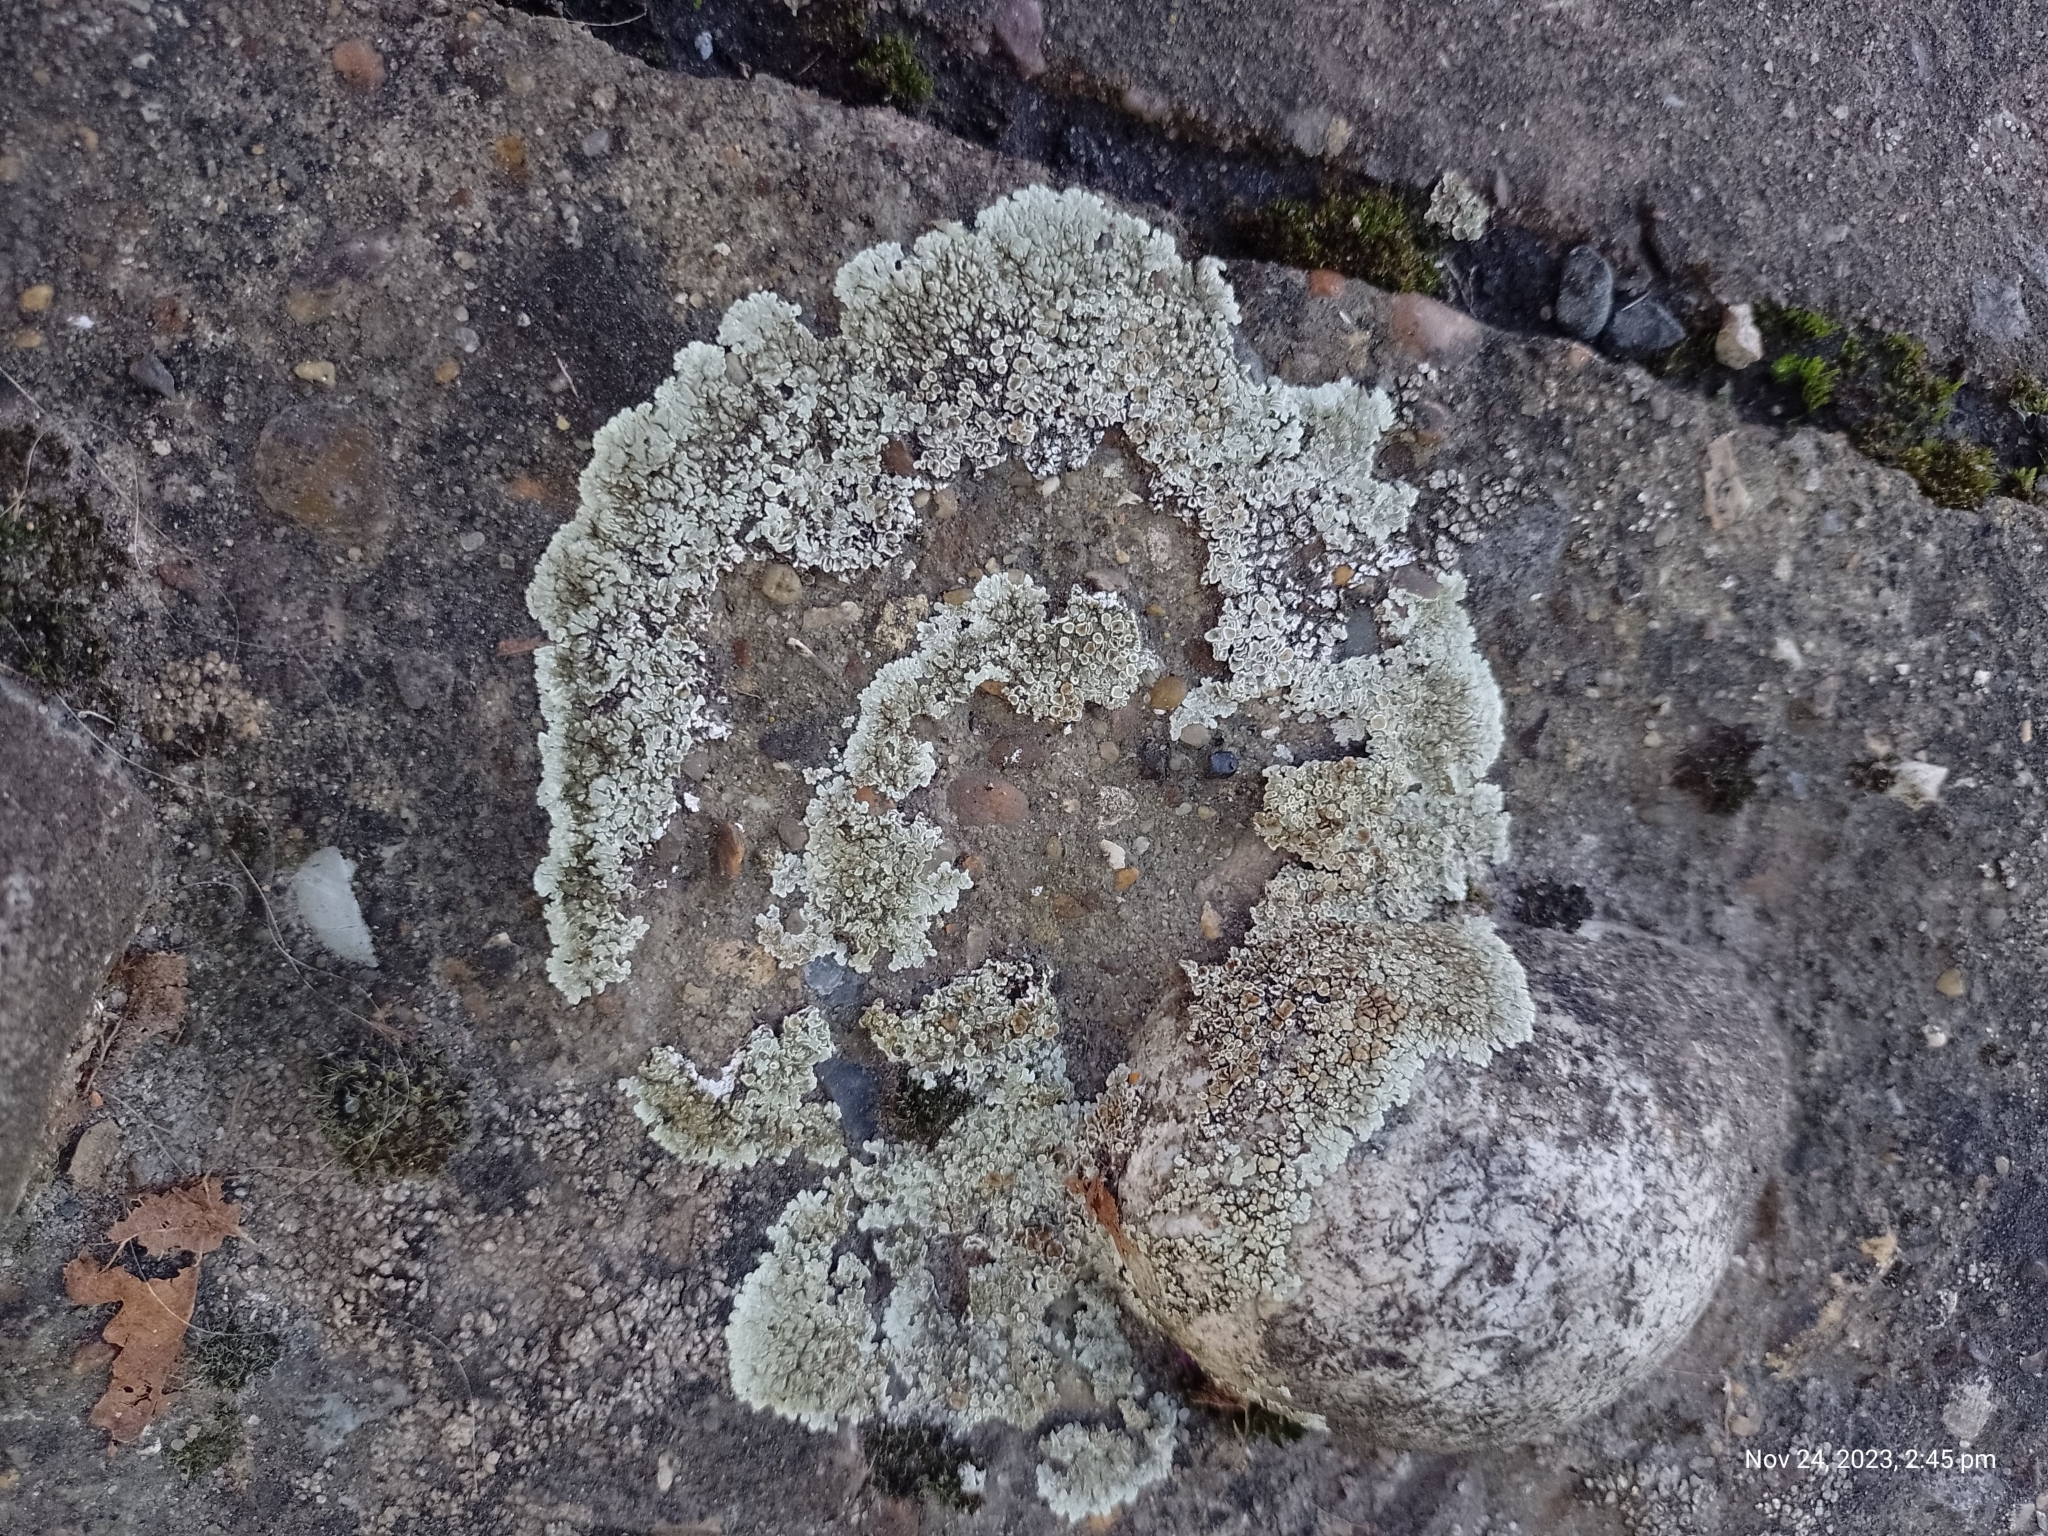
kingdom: Fungi
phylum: Ascomycota
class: Lecanoromycetes
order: Lecanorales
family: Lecanoraceae
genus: Protoparmeliopsis
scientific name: Protoparmeliopsis muralis
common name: Stonewall rim lichen
